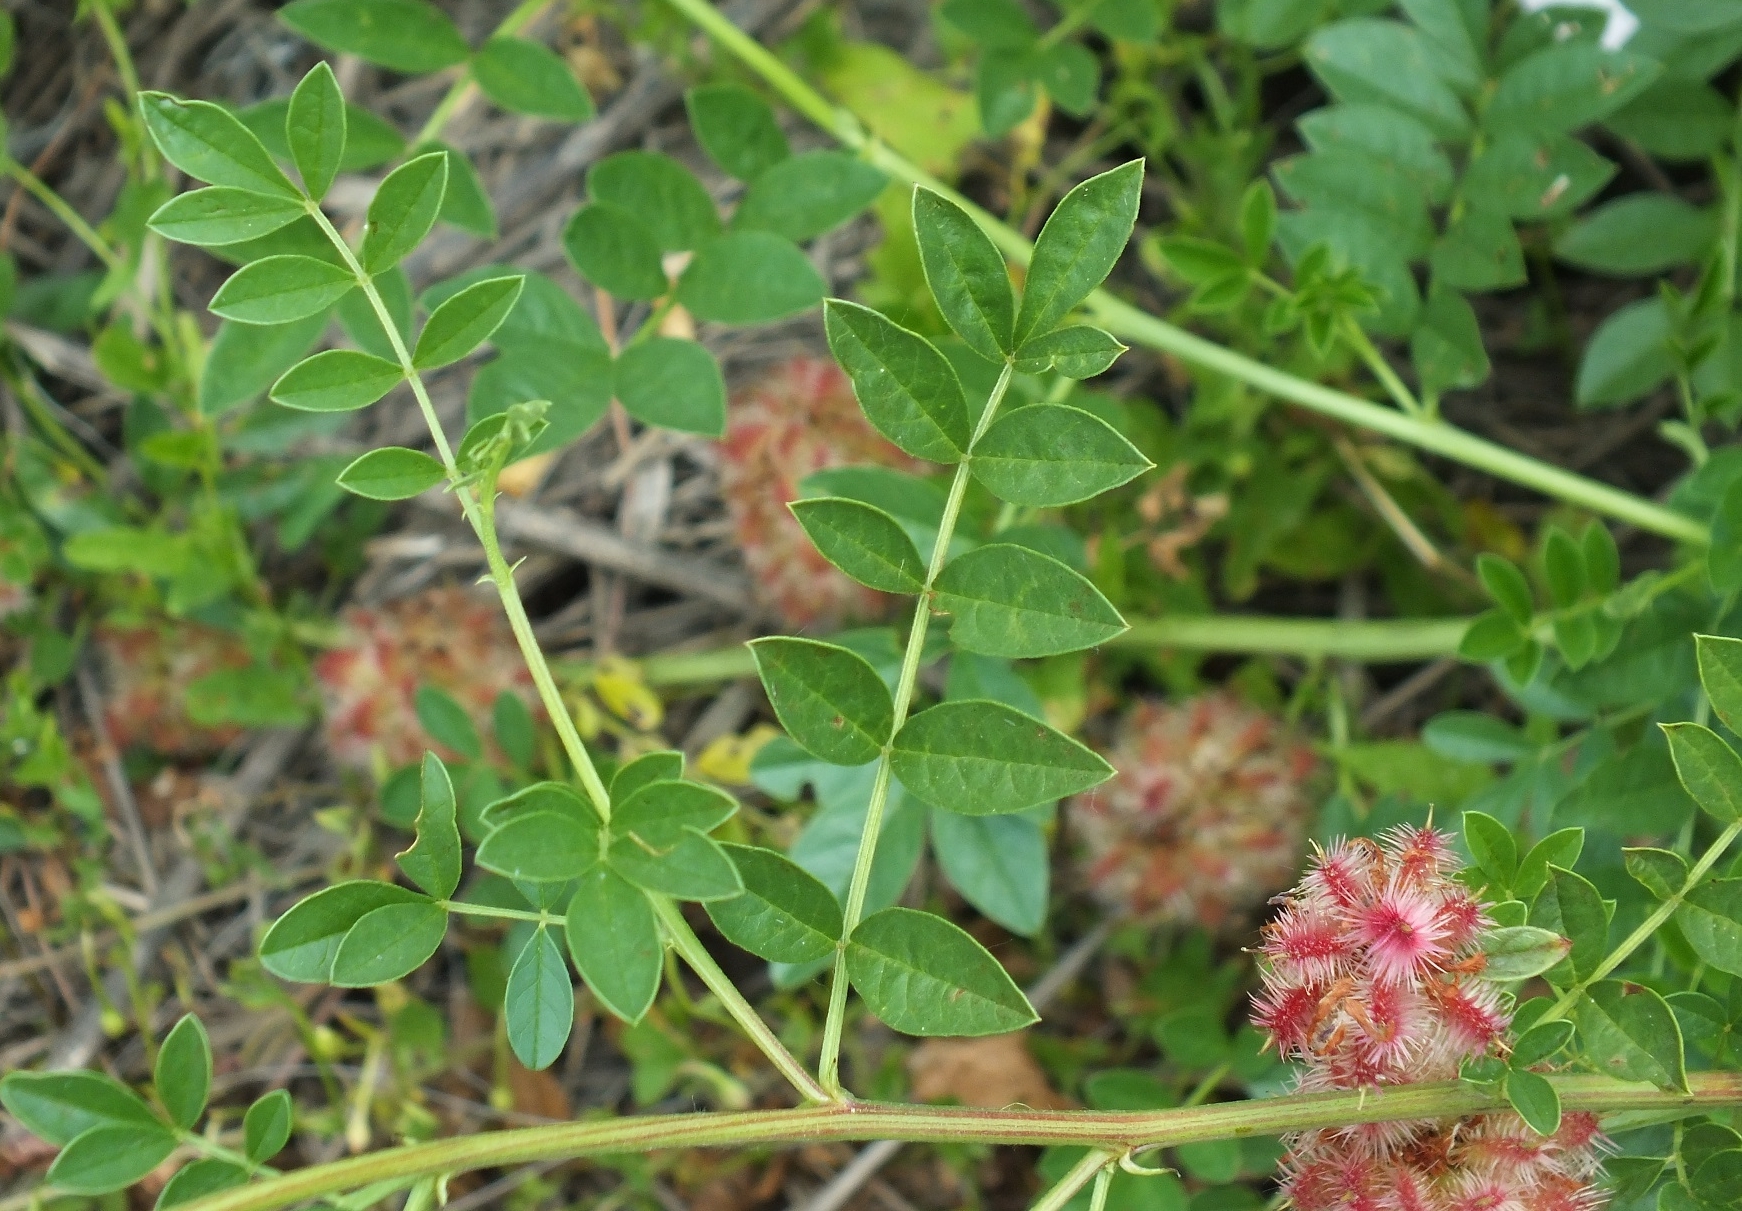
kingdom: Plantae
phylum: Tracheophyta
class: Magnoliopsida
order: Fabales
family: Fabaceae
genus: Glycyrrhiza
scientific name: Glycyrrhiza echinata
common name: German liquorice
